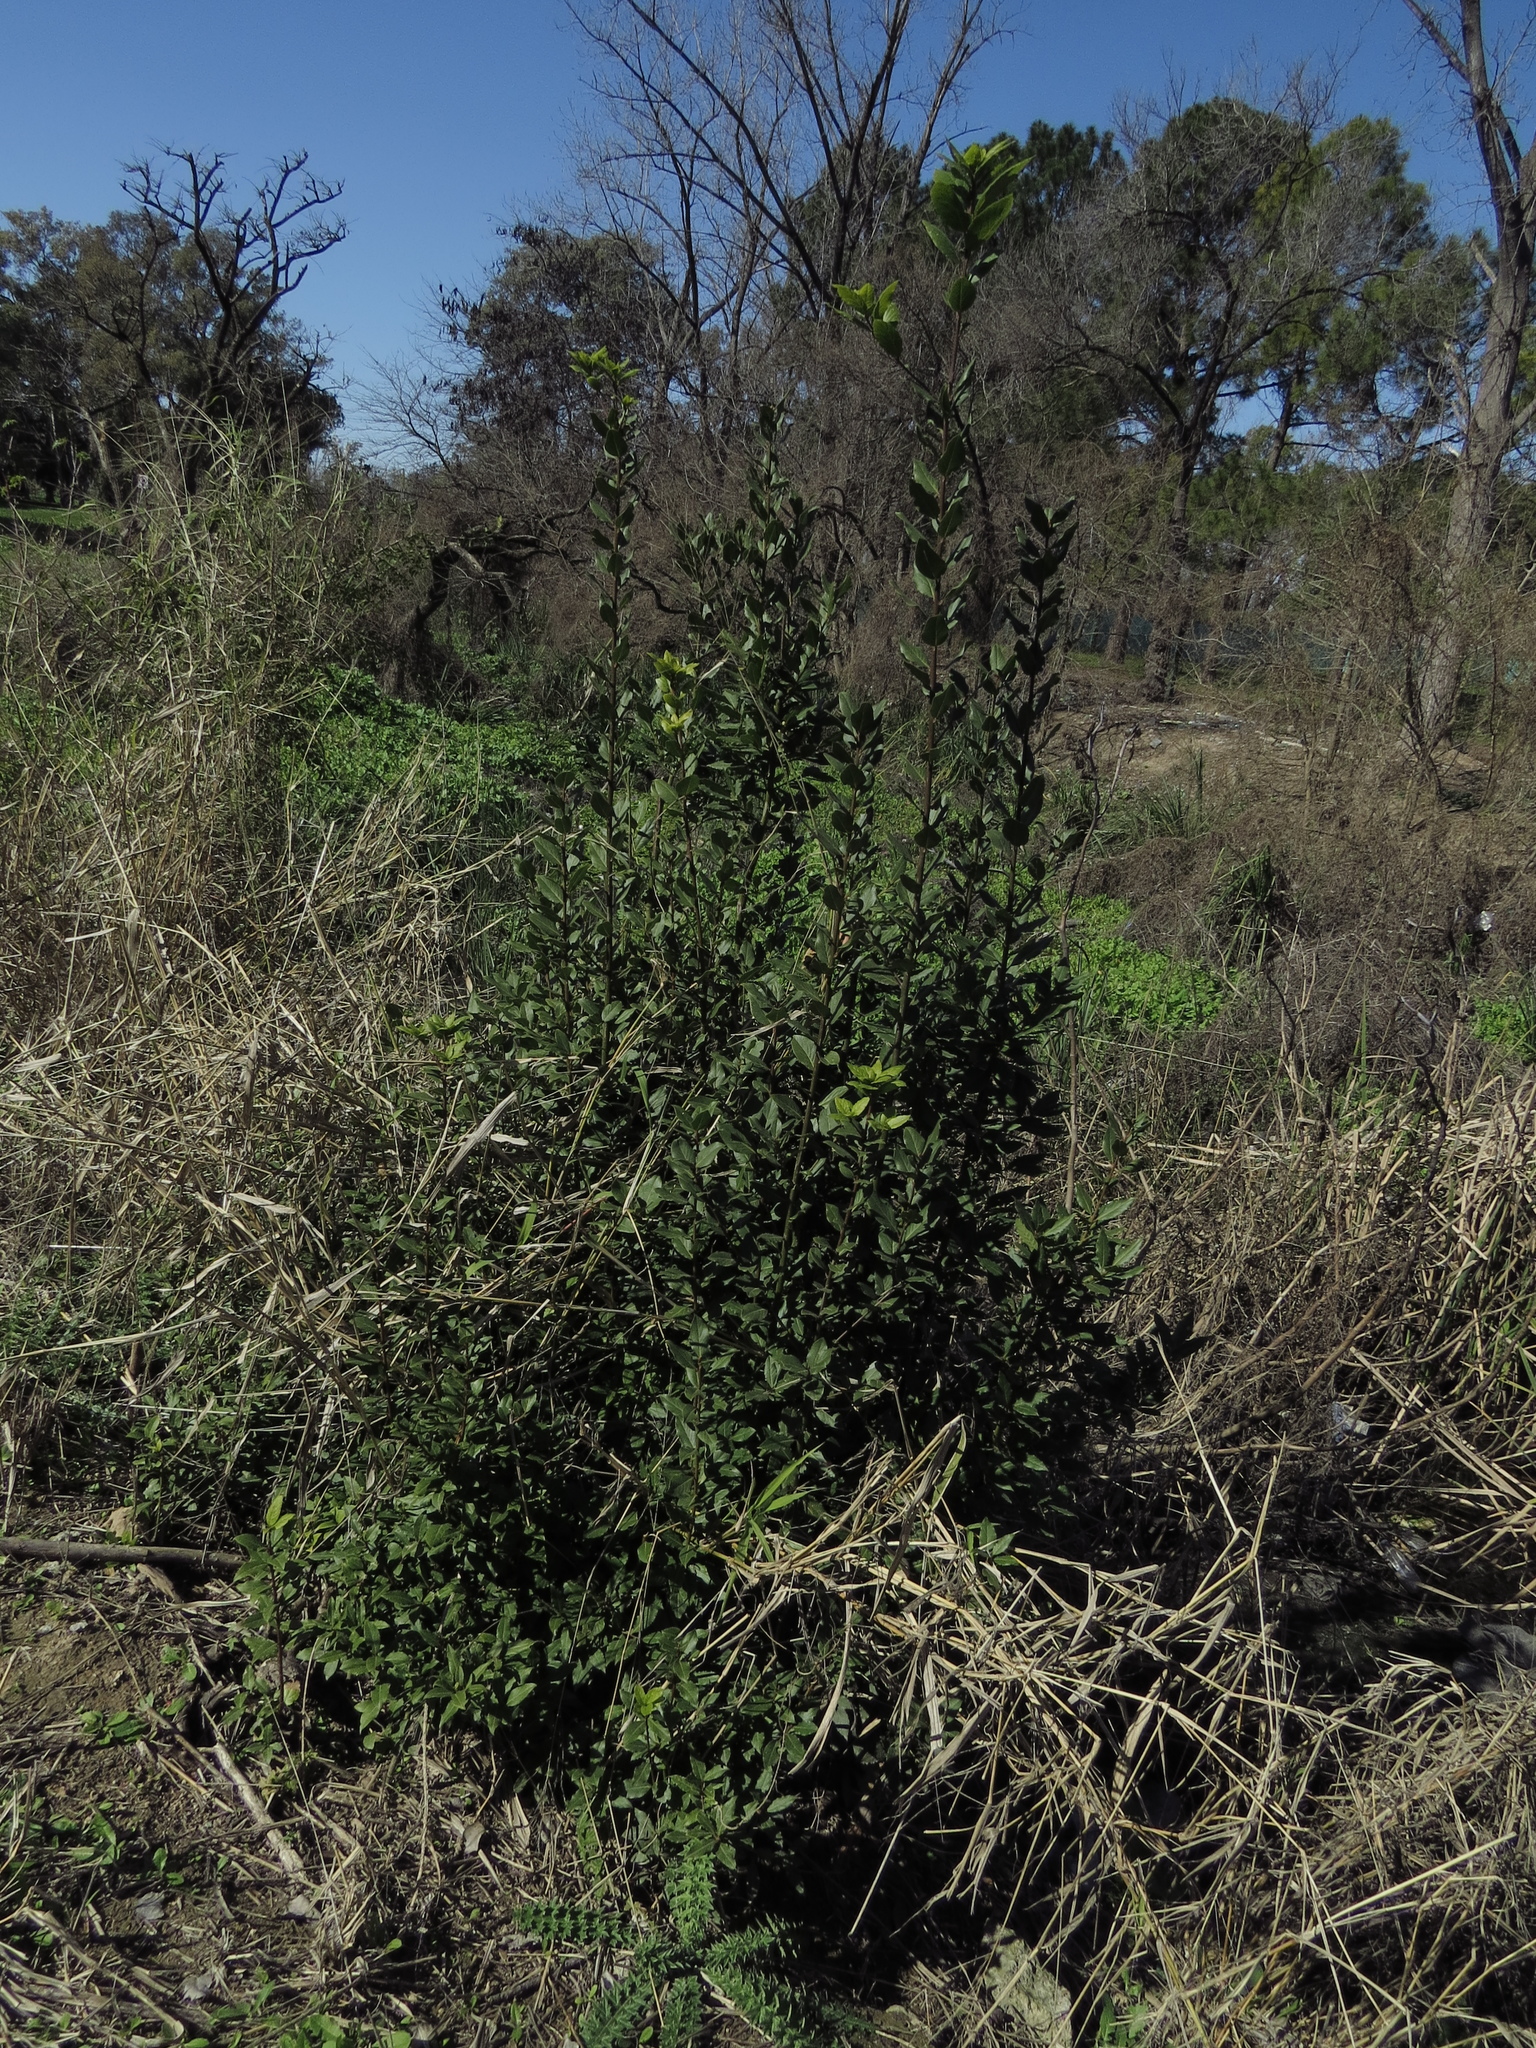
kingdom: Plantae
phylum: Tracheophyta
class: Magnoliopsida
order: Laurales
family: Lauraceae
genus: Laurus
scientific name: Laurus nobilis
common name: Bay
